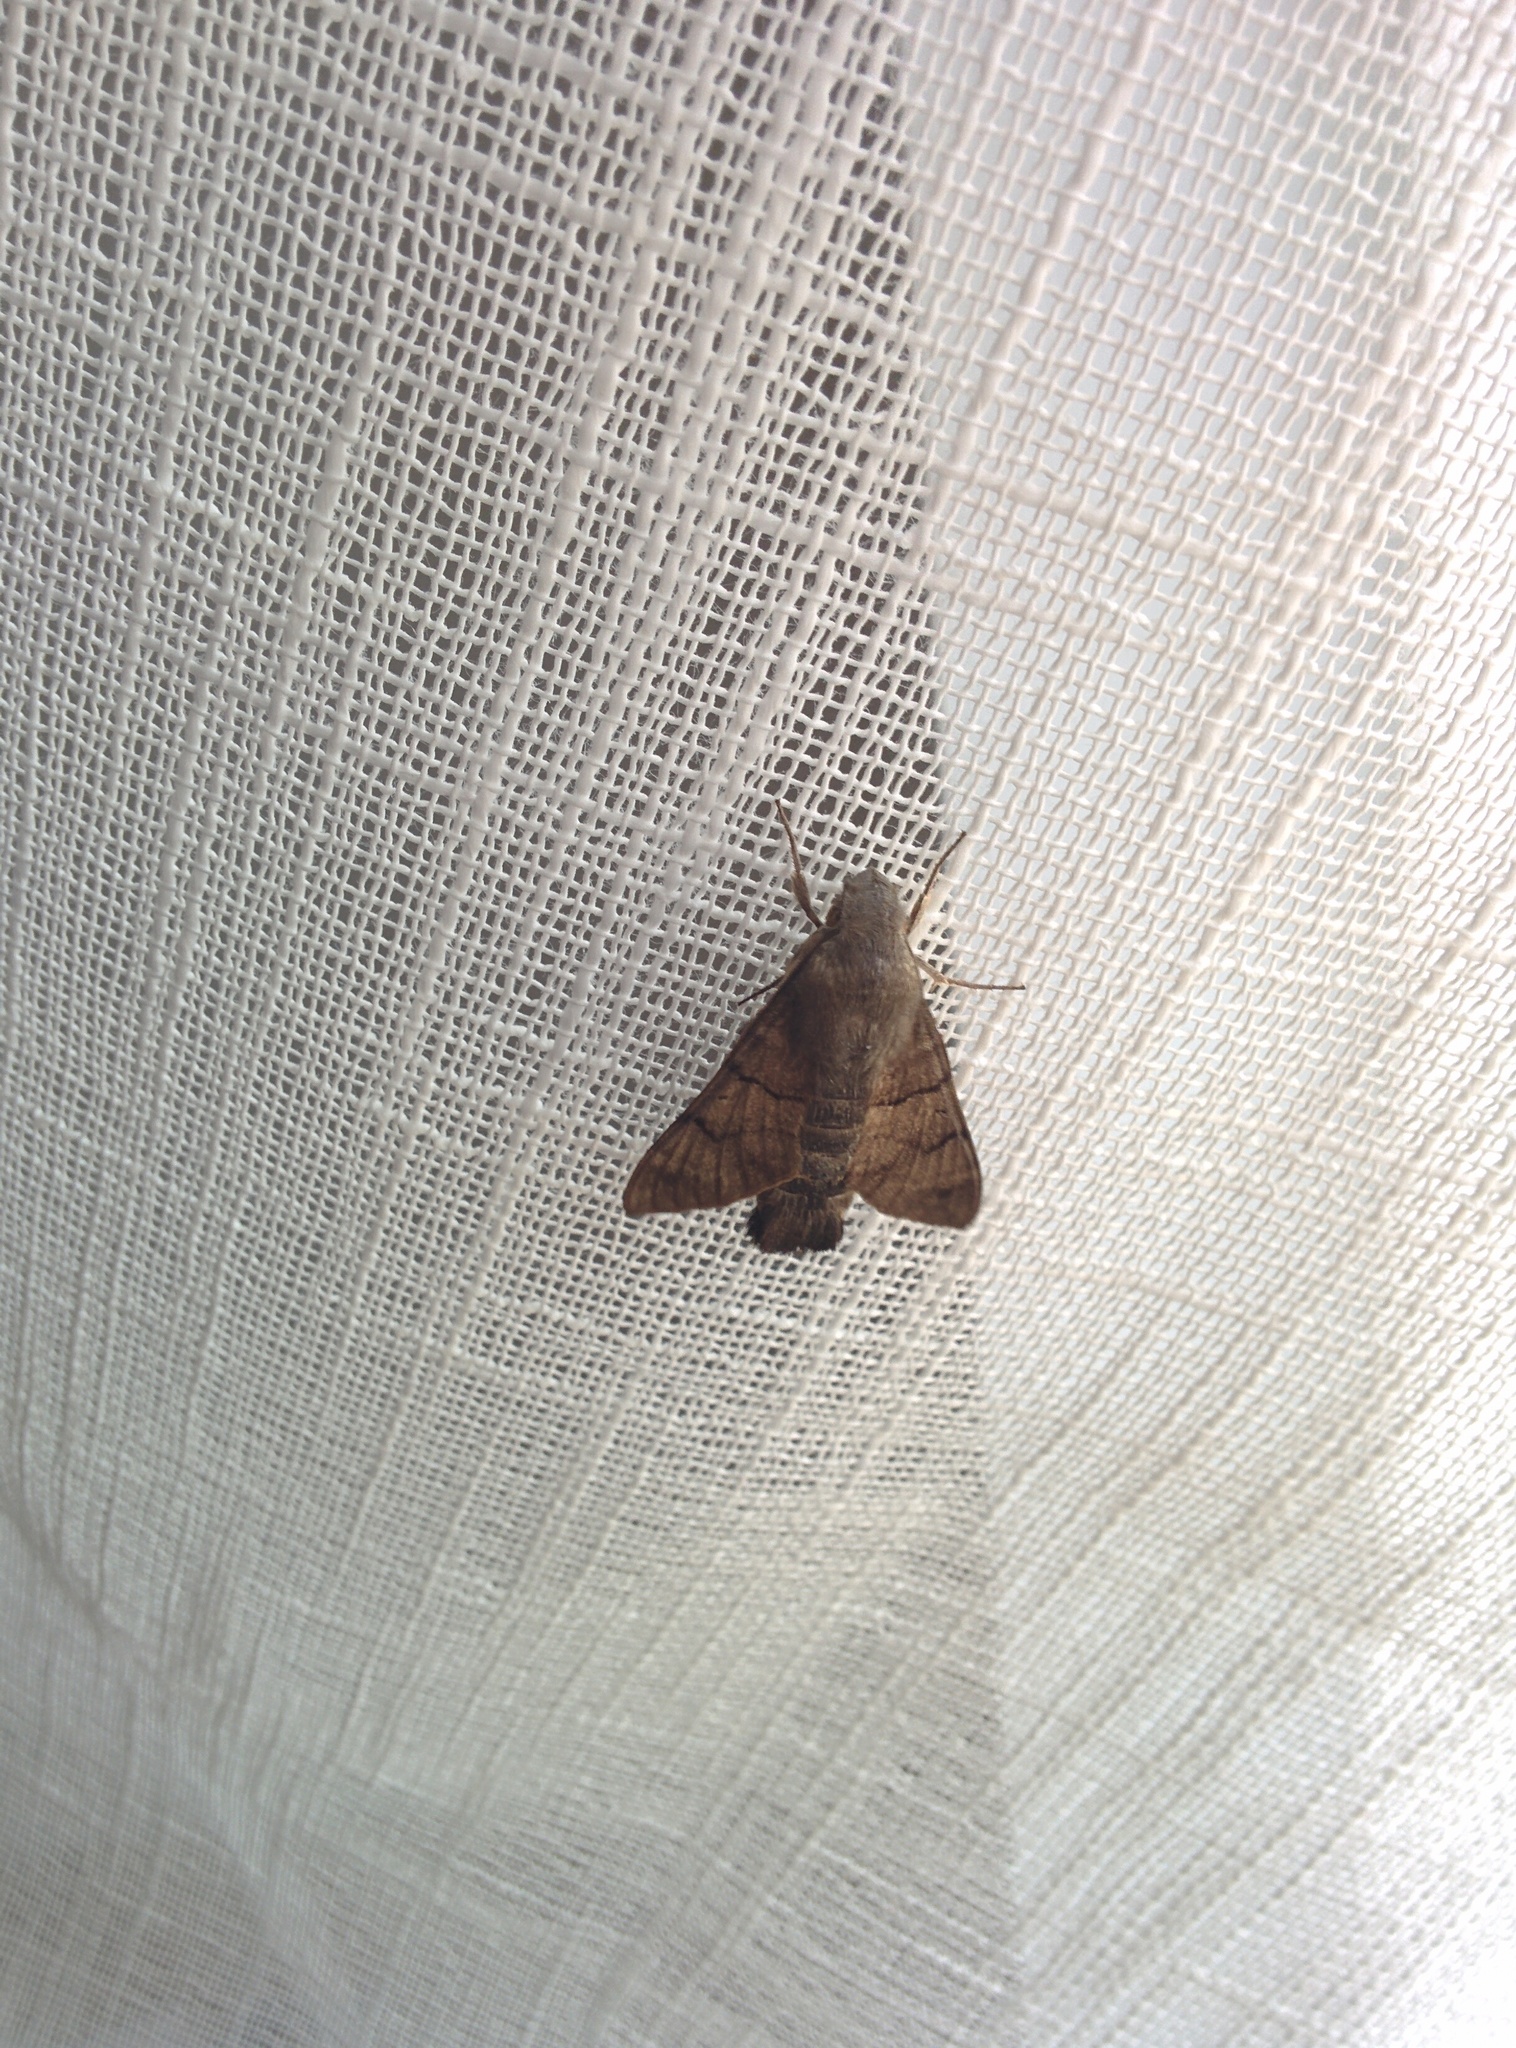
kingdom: Animalia
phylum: Arthropoda
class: Insecta
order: Lepidoptera
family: Sphingidae
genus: Macroglossum
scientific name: Macroglossum stellatarum
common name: Humming-bird hawk-moth
